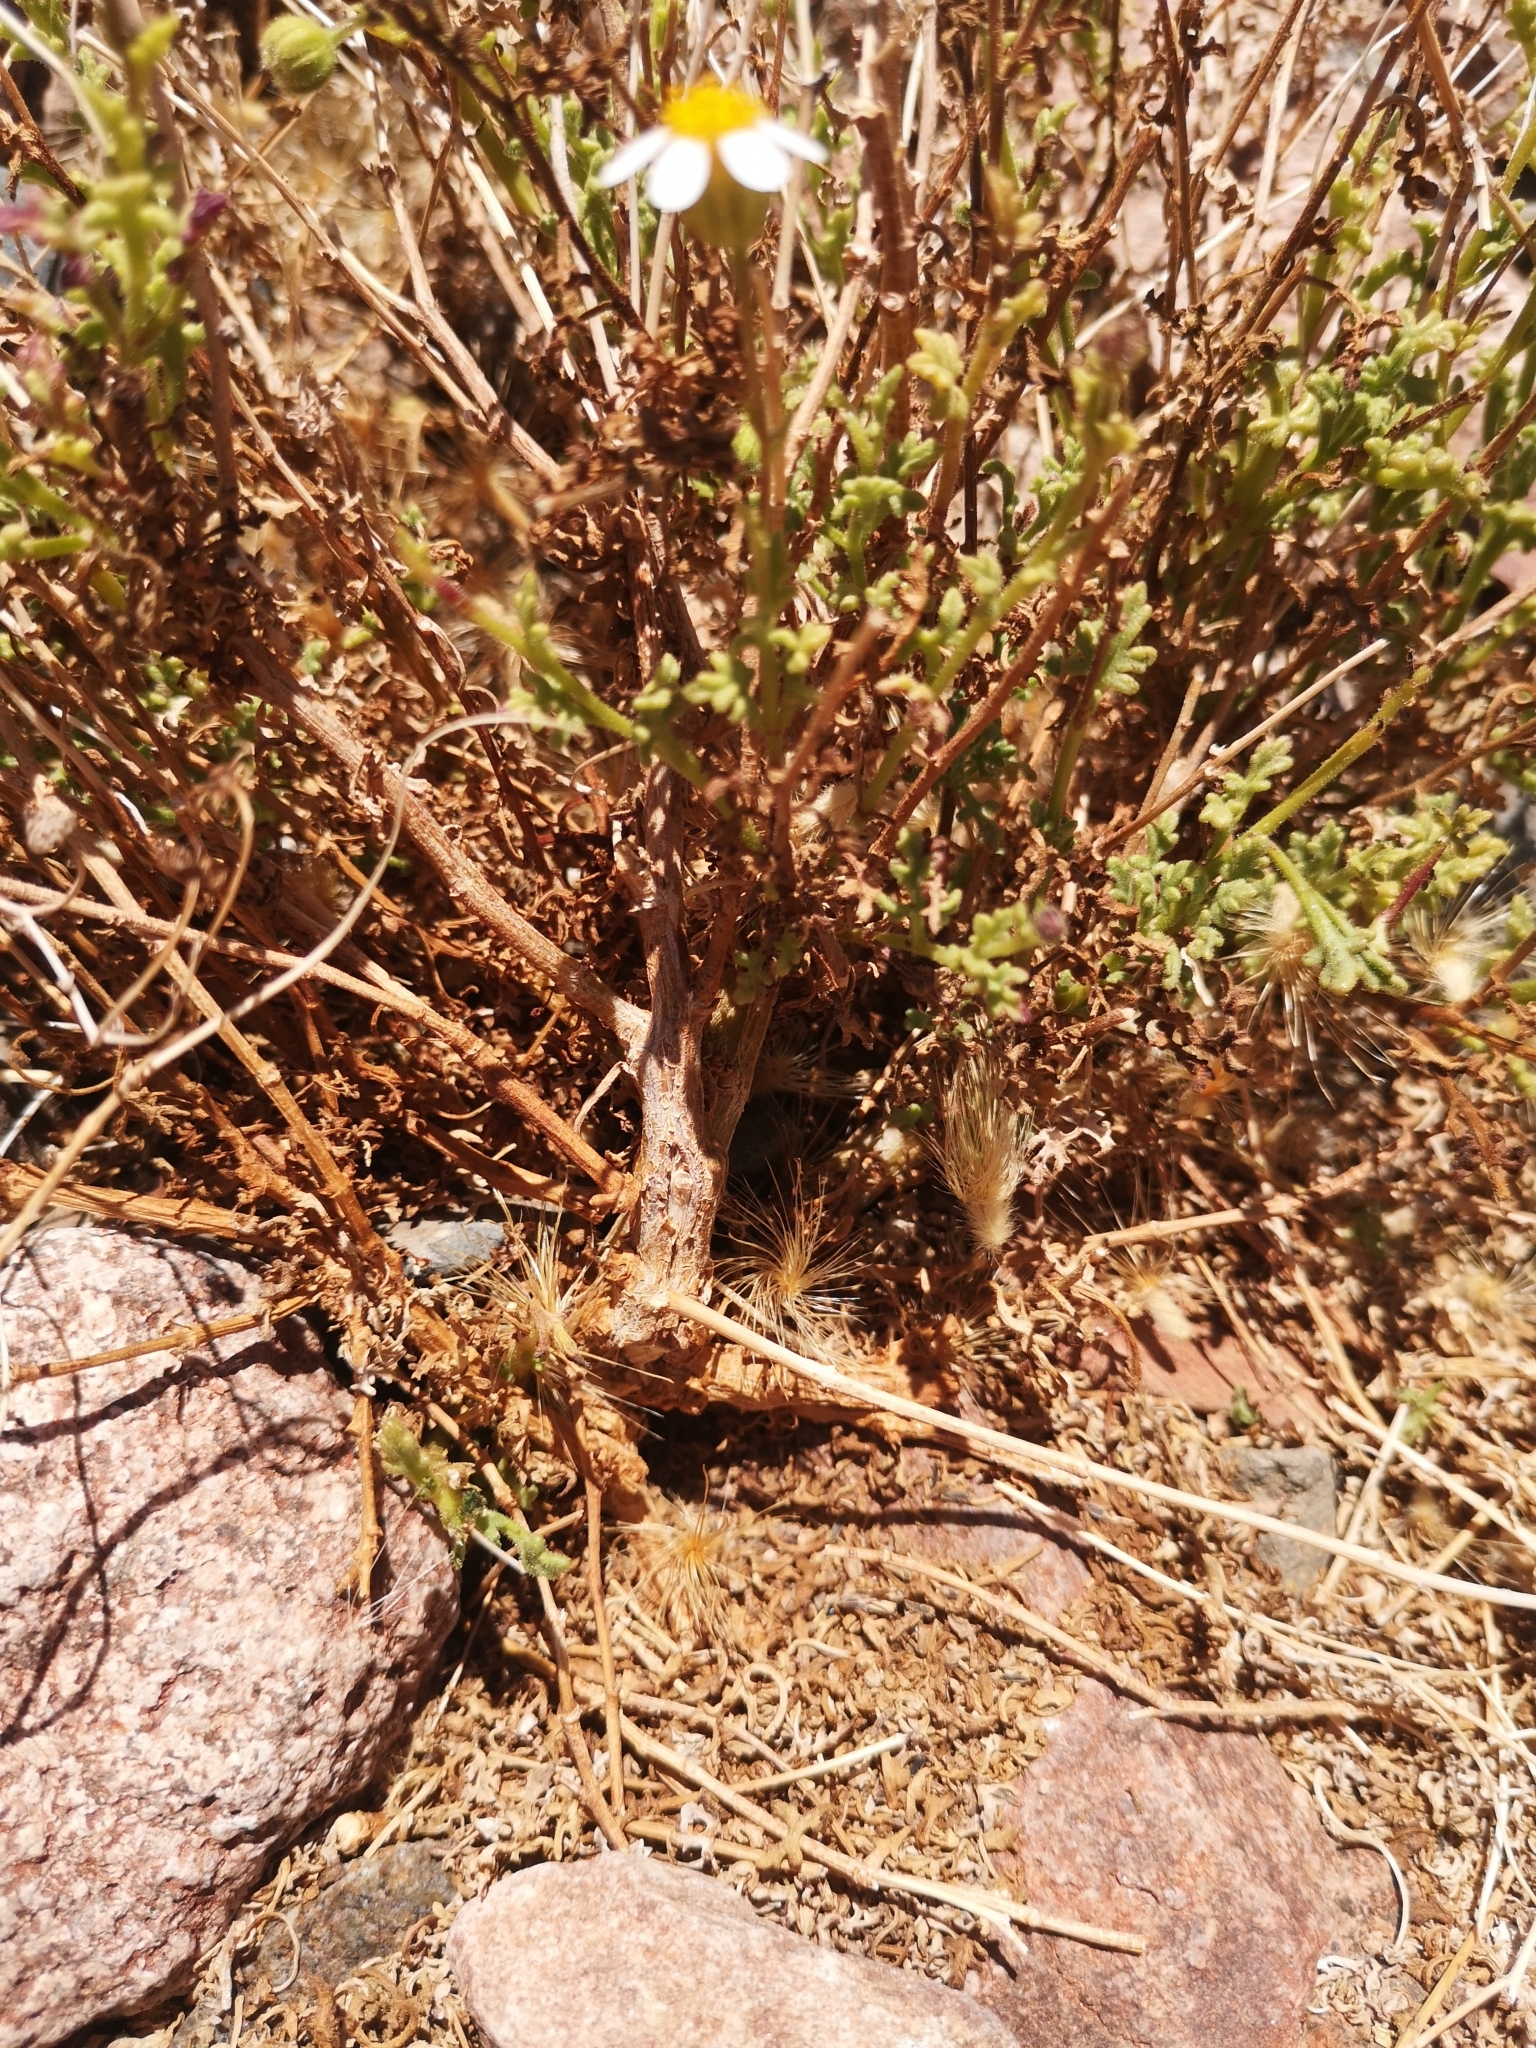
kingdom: Plantae
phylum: Tracheophyta
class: Magnoliopsida
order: Asterales
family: Asteraceae
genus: Laphamia
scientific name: Laphamia emoryi
